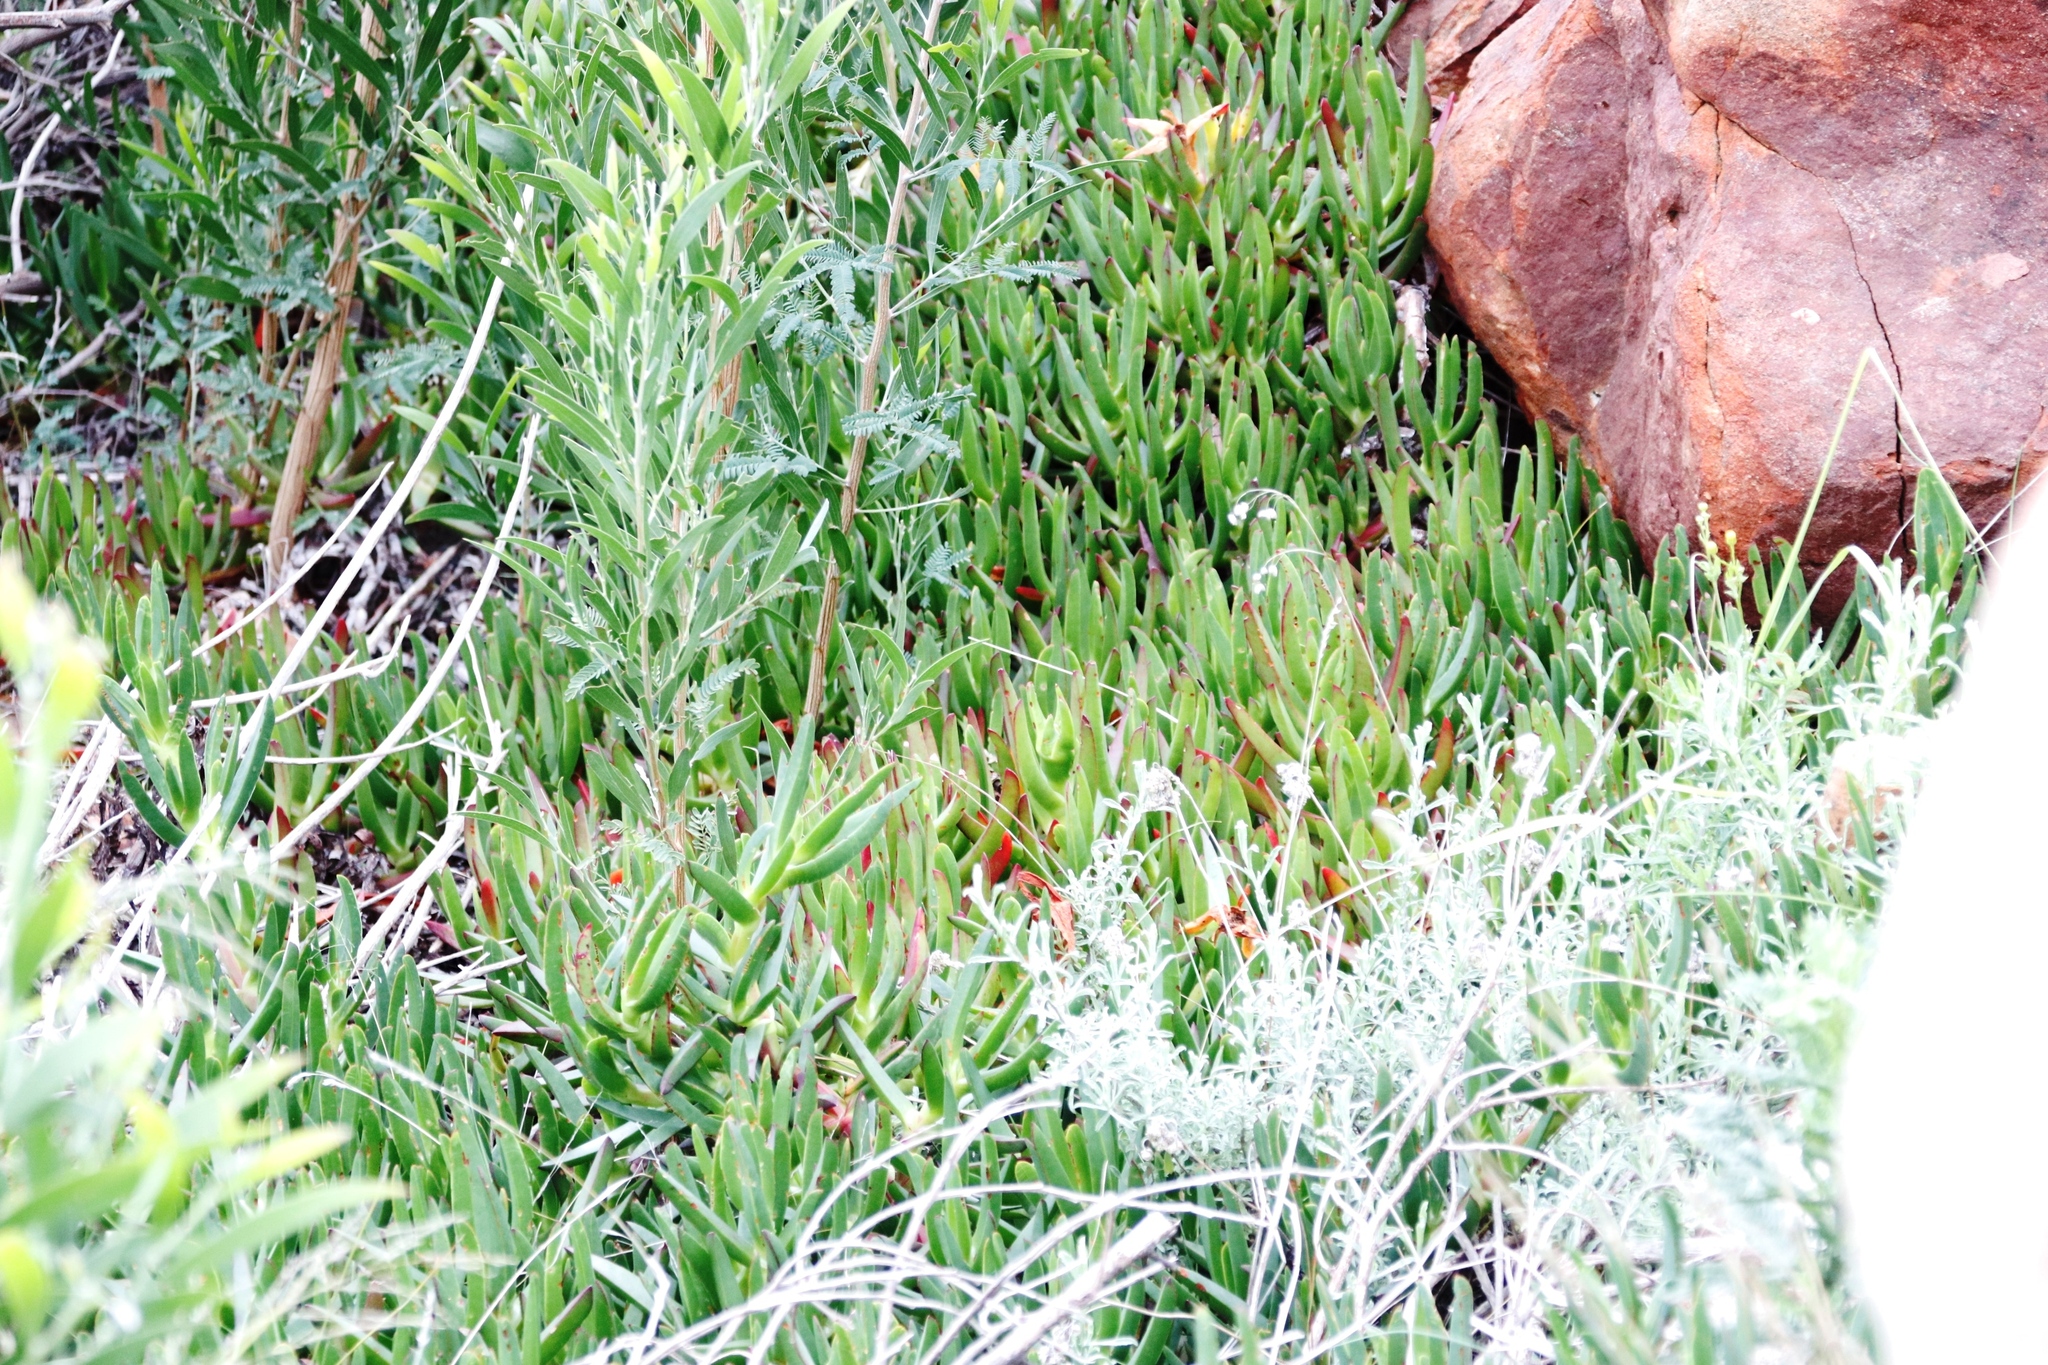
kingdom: Plantae
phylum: Tracheophyta
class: Magnoliopsida
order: Caryophyllales
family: Aizoaceae
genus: Carpobrotus
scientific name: Carpobrotus edulis
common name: Hottentot-fig
